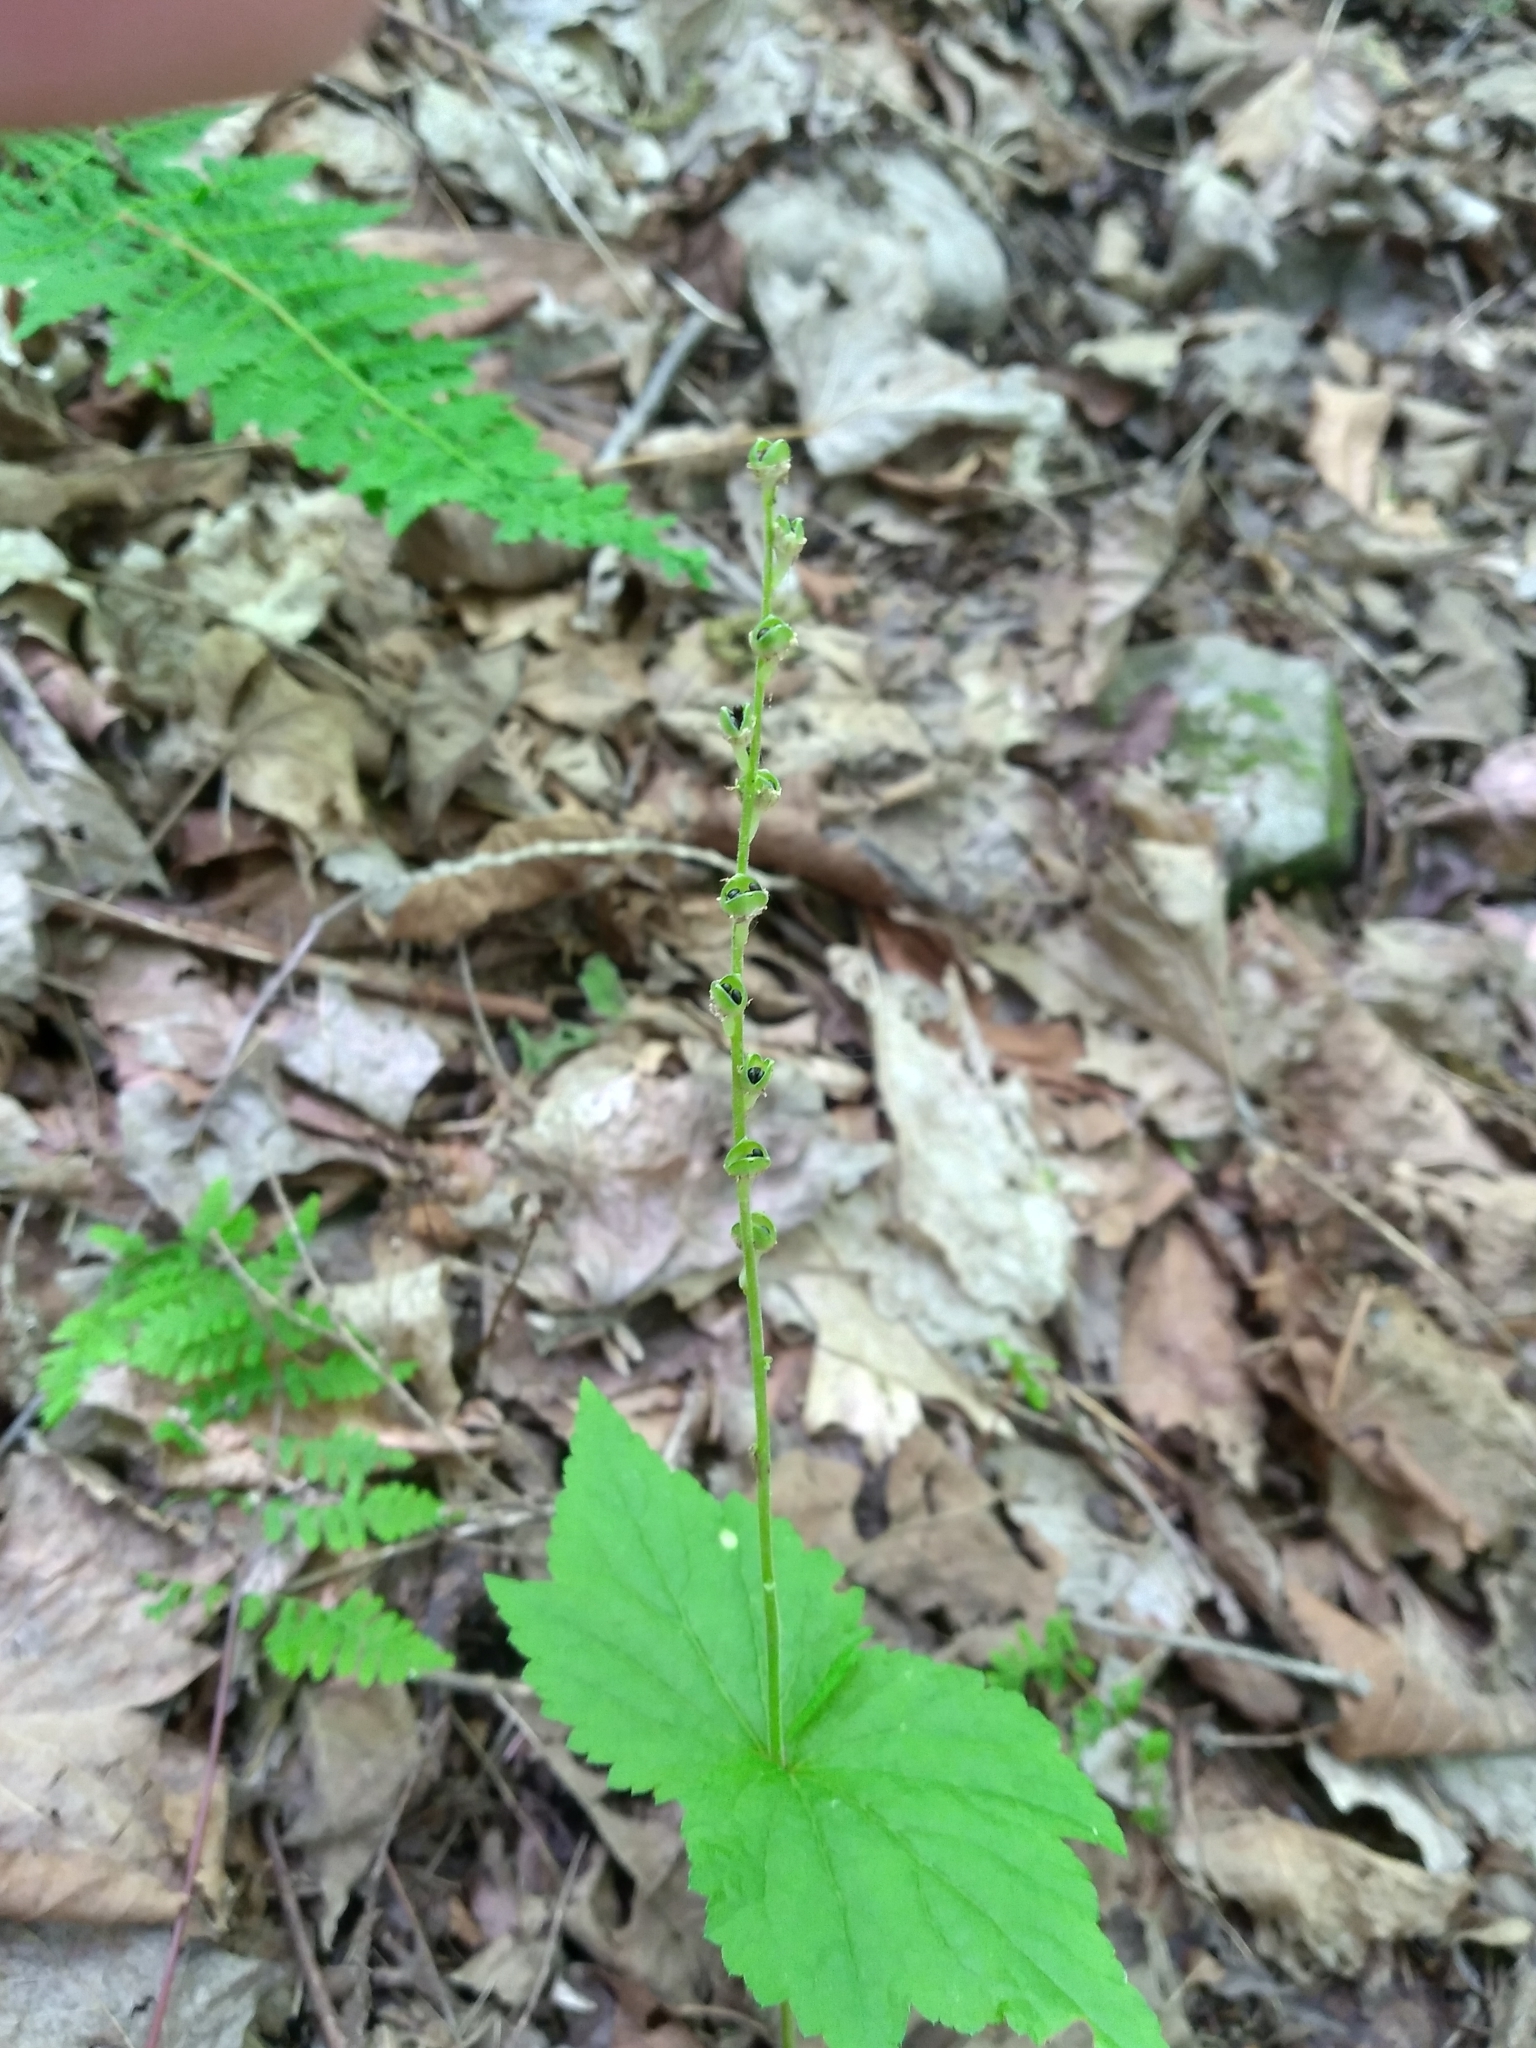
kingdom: Plantae
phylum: Tracheophyta
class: Magnoliopsida
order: Saxifragales
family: Saxifragaceae
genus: Mitella
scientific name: Mitella diphylla
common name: Coolwort
